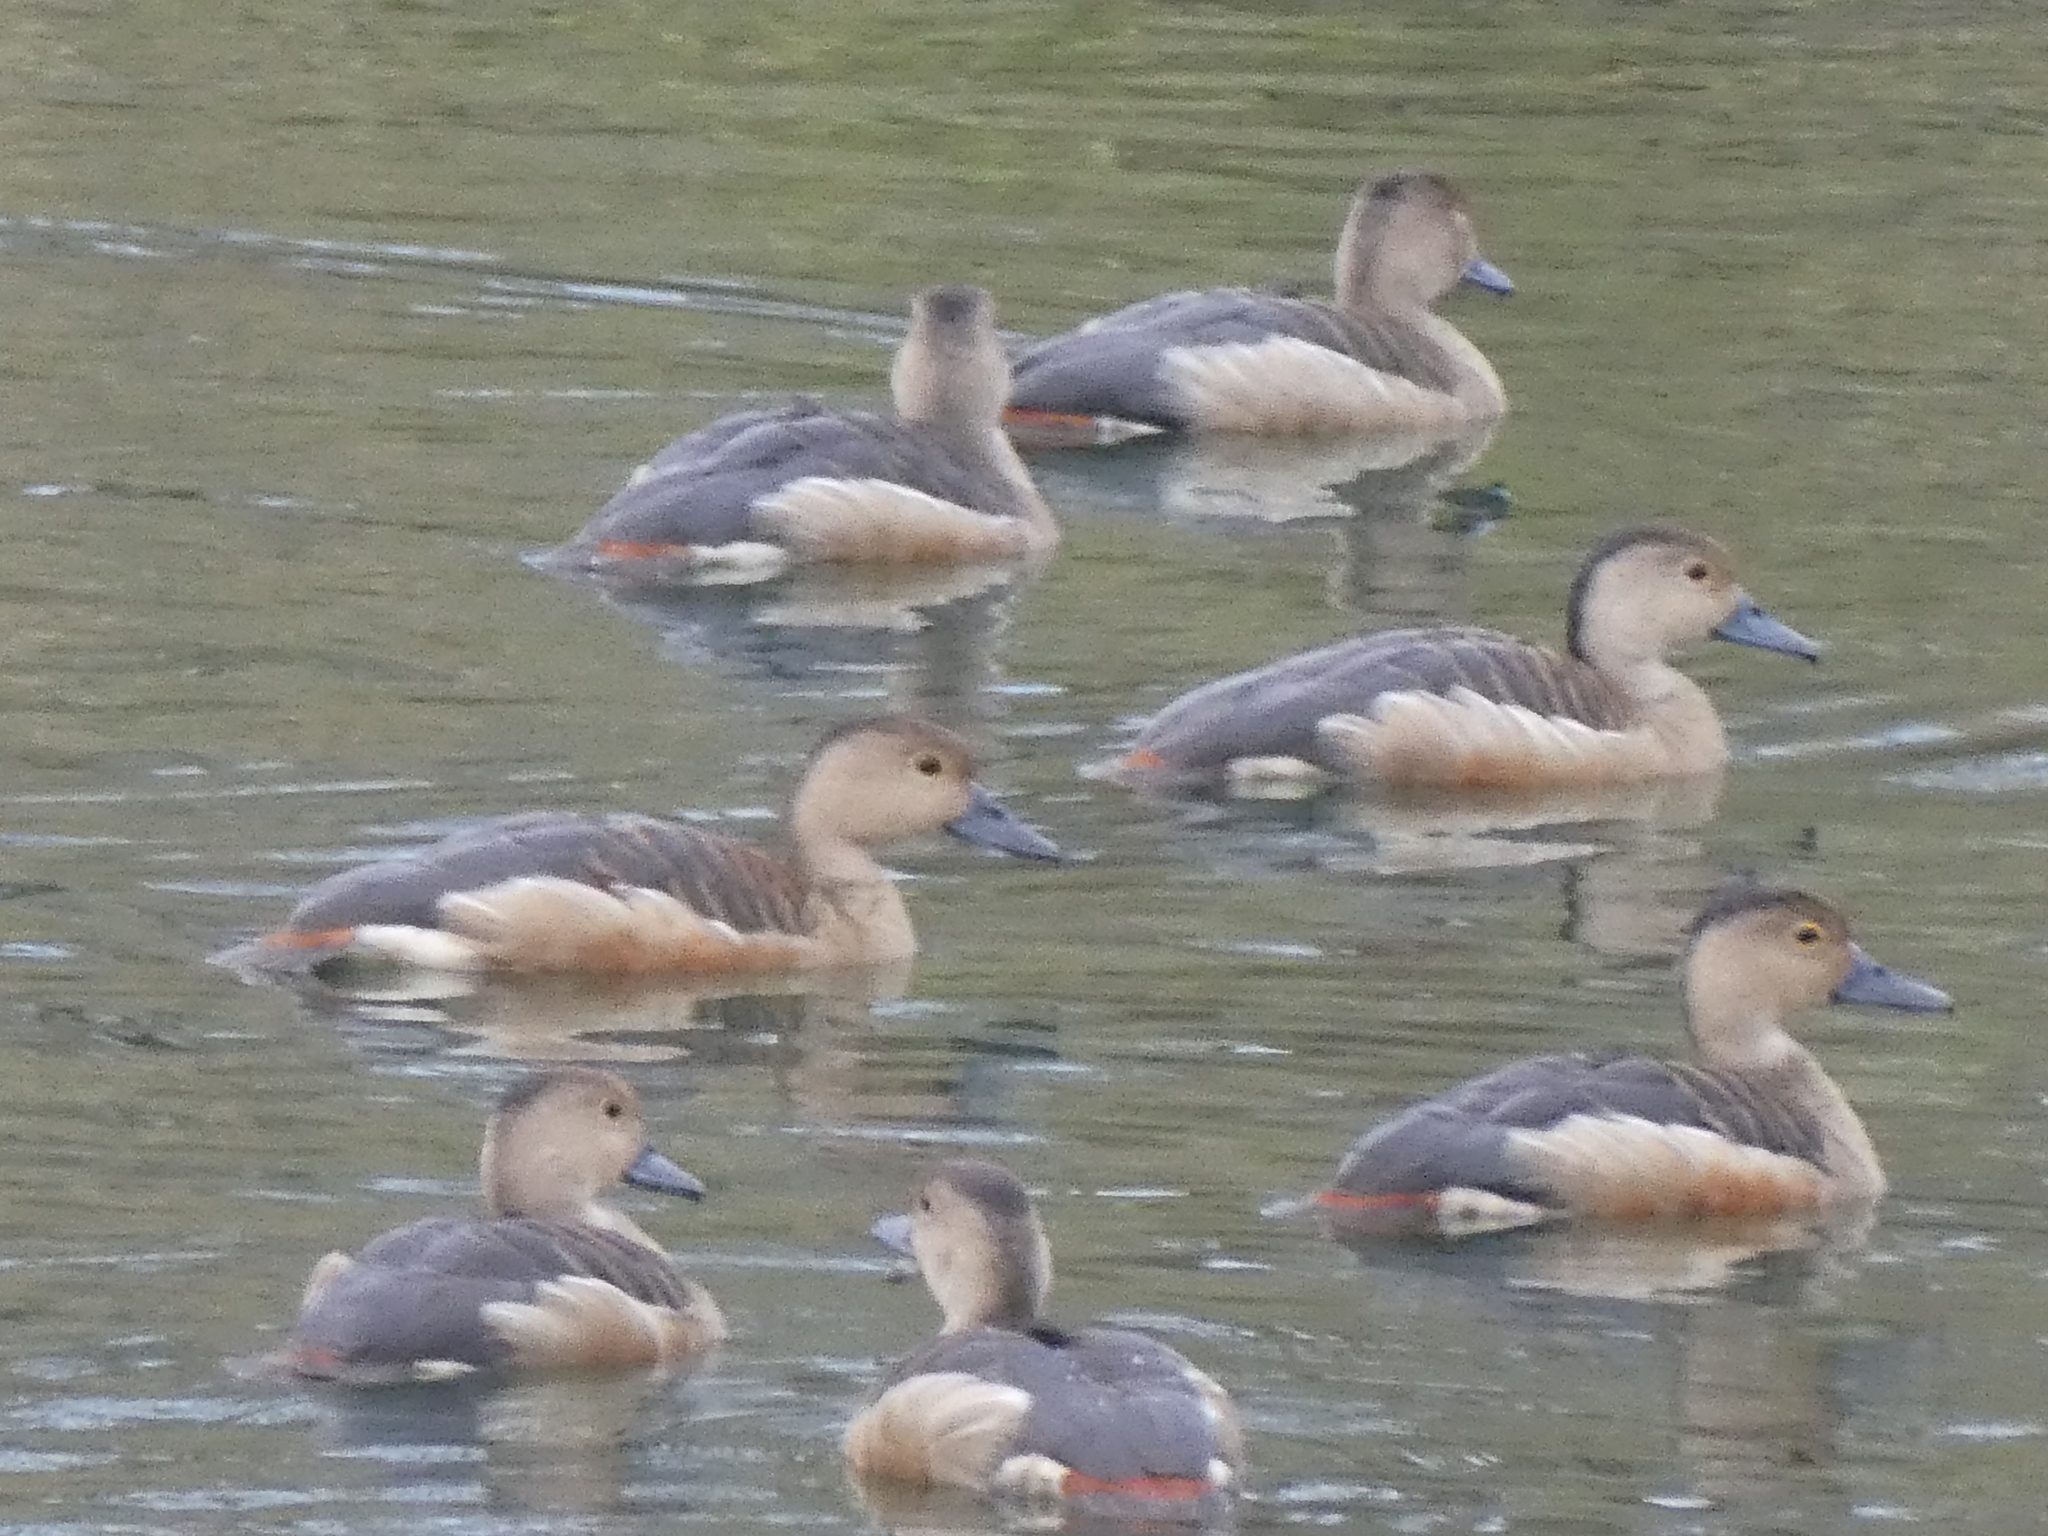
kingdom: Animalia
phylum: Chordata
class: Aves
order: Anseriformes
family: Anatidae
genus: Dendrocygna
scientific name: Dendrocygna javanica
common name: Lesser whistling-duck
